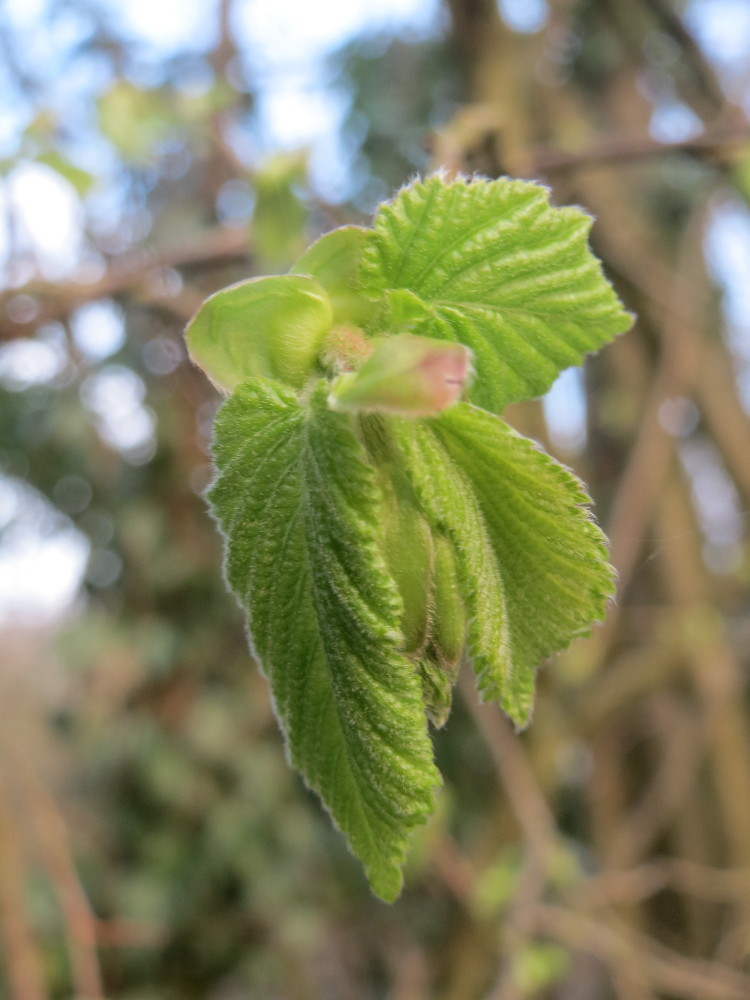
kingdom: Plantae
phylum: Tracheophyta
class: Magnoliopsida
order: Fagales
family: Betulaceae
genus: Corylus
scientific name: Corylus avellana
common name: European hazel
